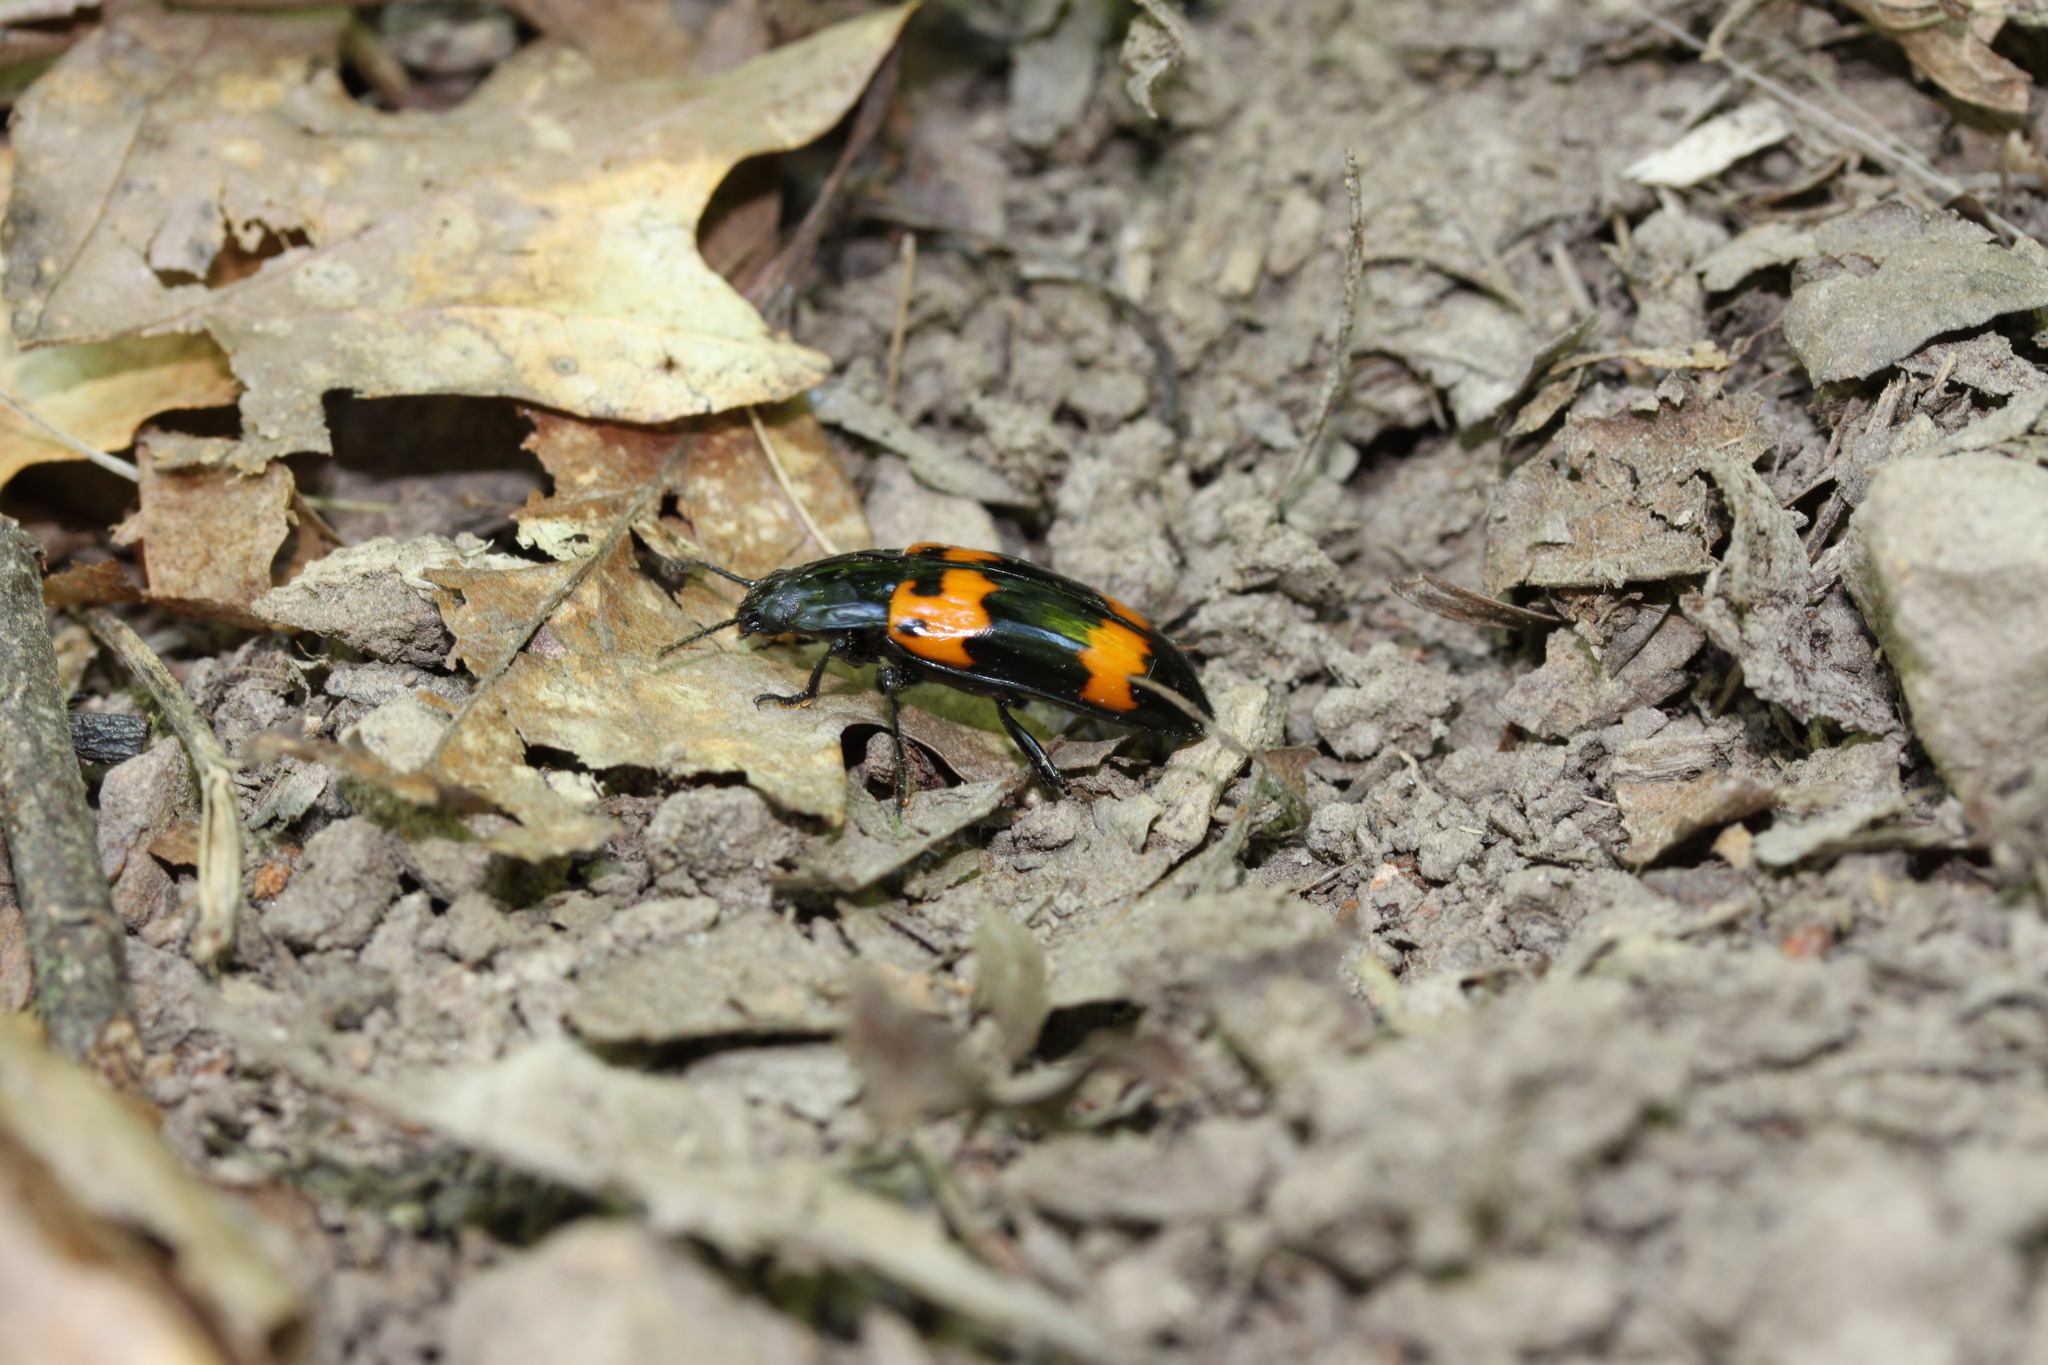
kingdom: Animalia
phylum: Arthropoda
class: Insecta
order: Coleoptera
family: Erotylidae
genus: Megalodacne
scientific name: Megalodacne heros
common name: Pleasing fungus beetle
